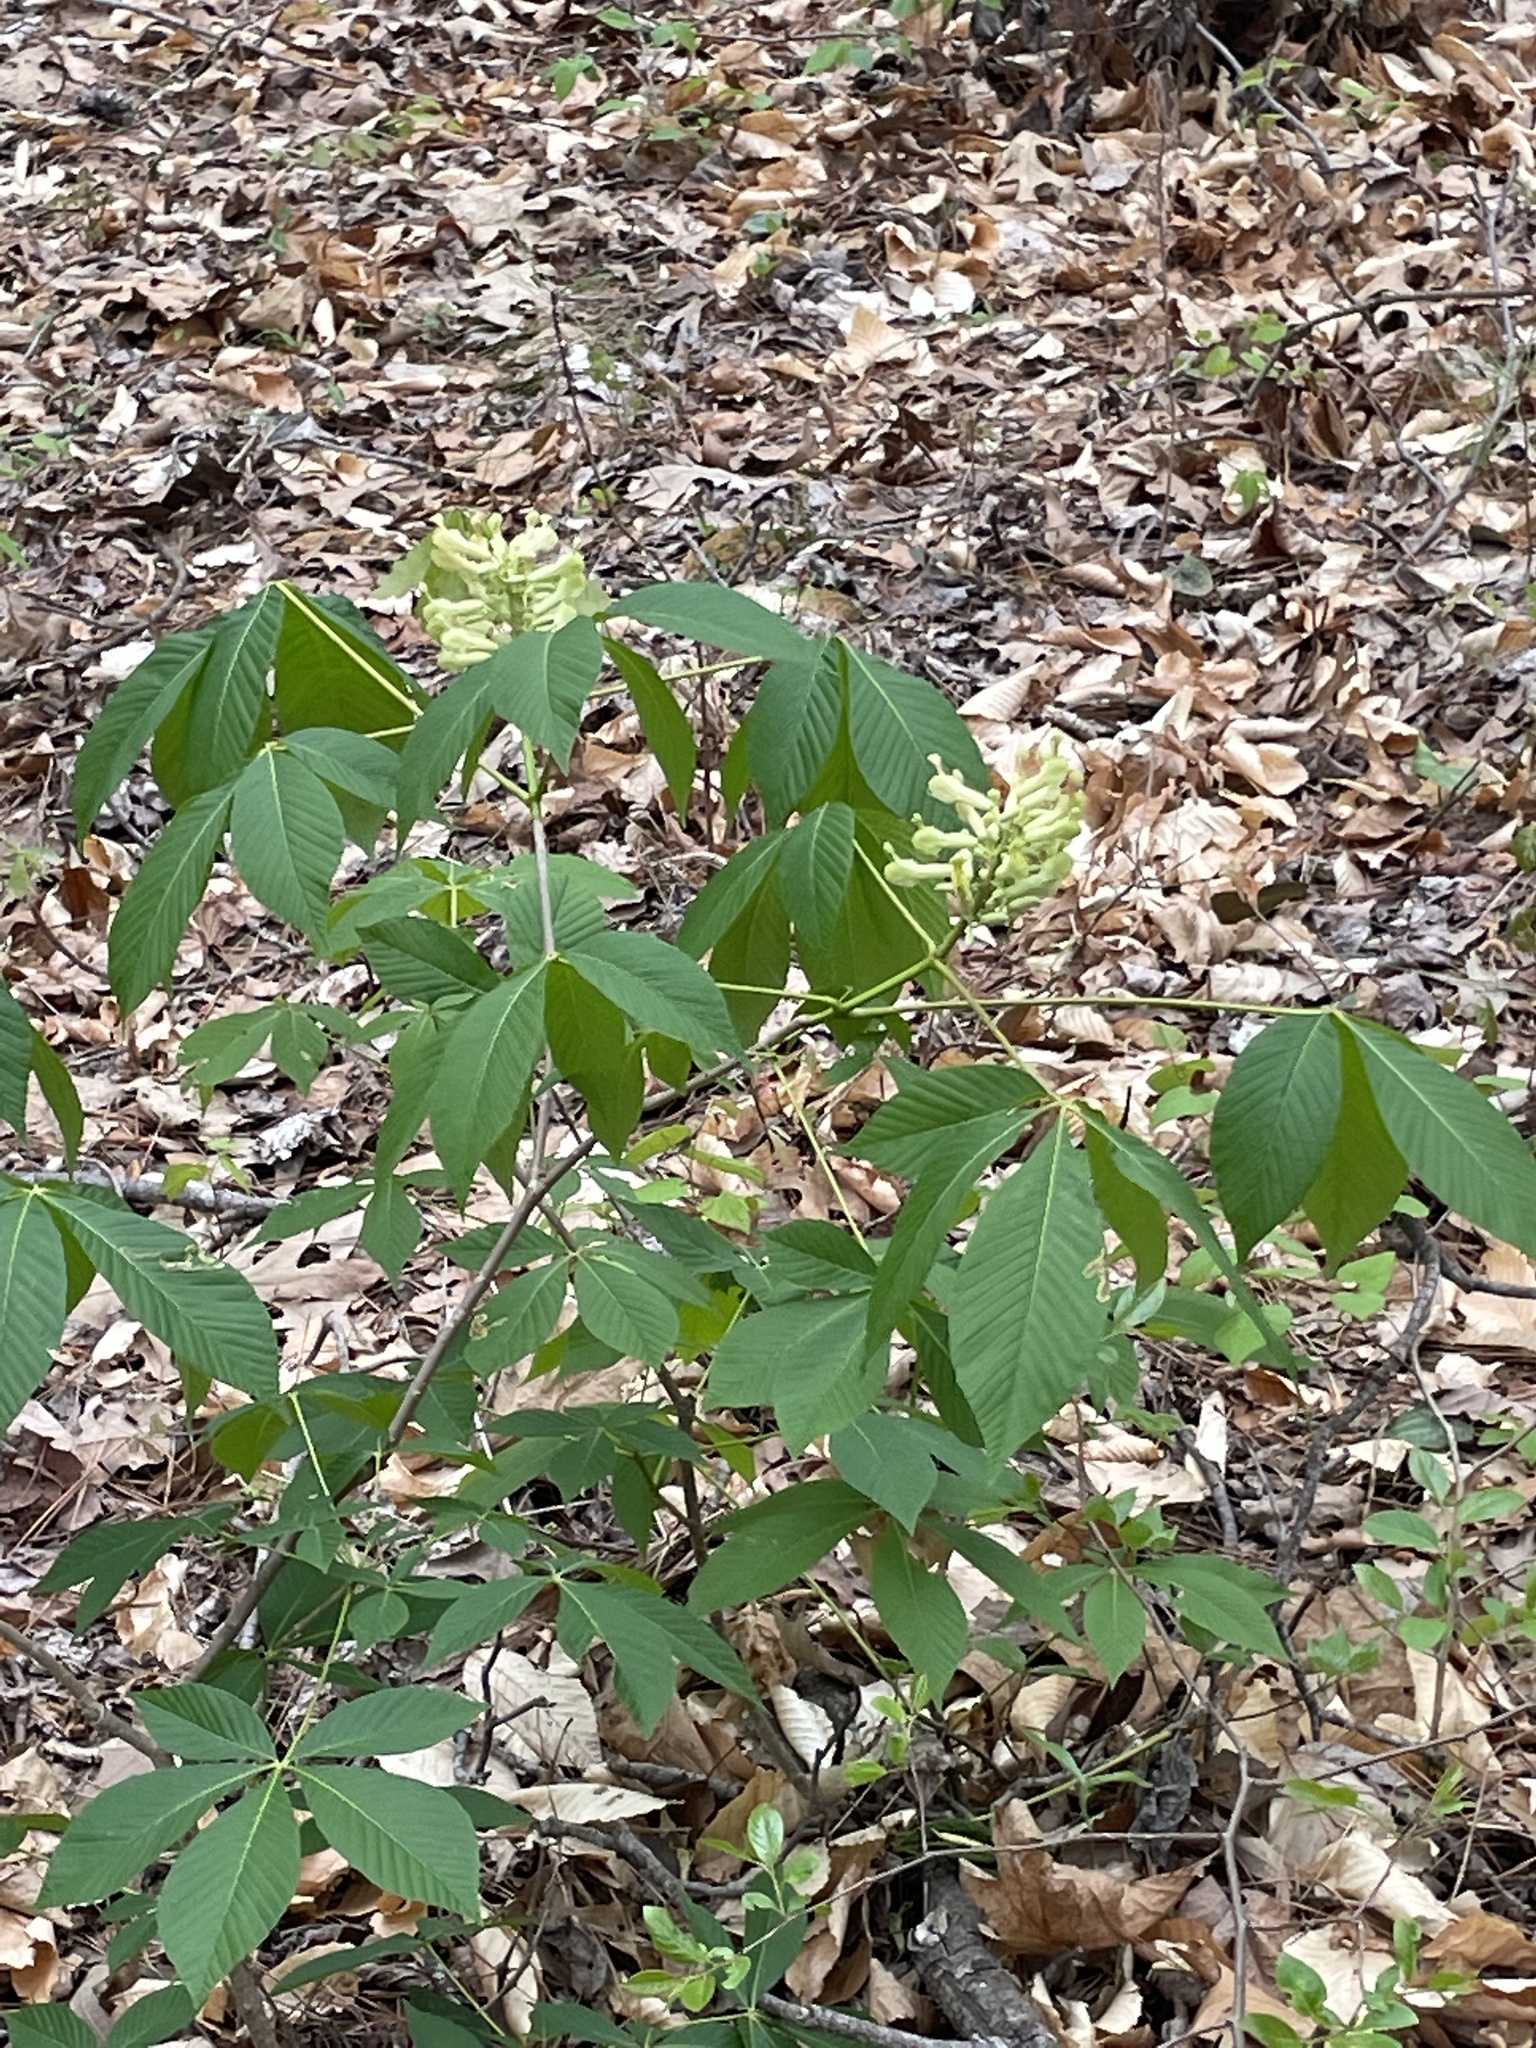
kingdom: Plantae
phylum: Tracheophyta
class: Magnoliopsida
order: Sapindales
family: Sapindaceae
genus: Aesculus
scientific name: Aesculus sylvatica
